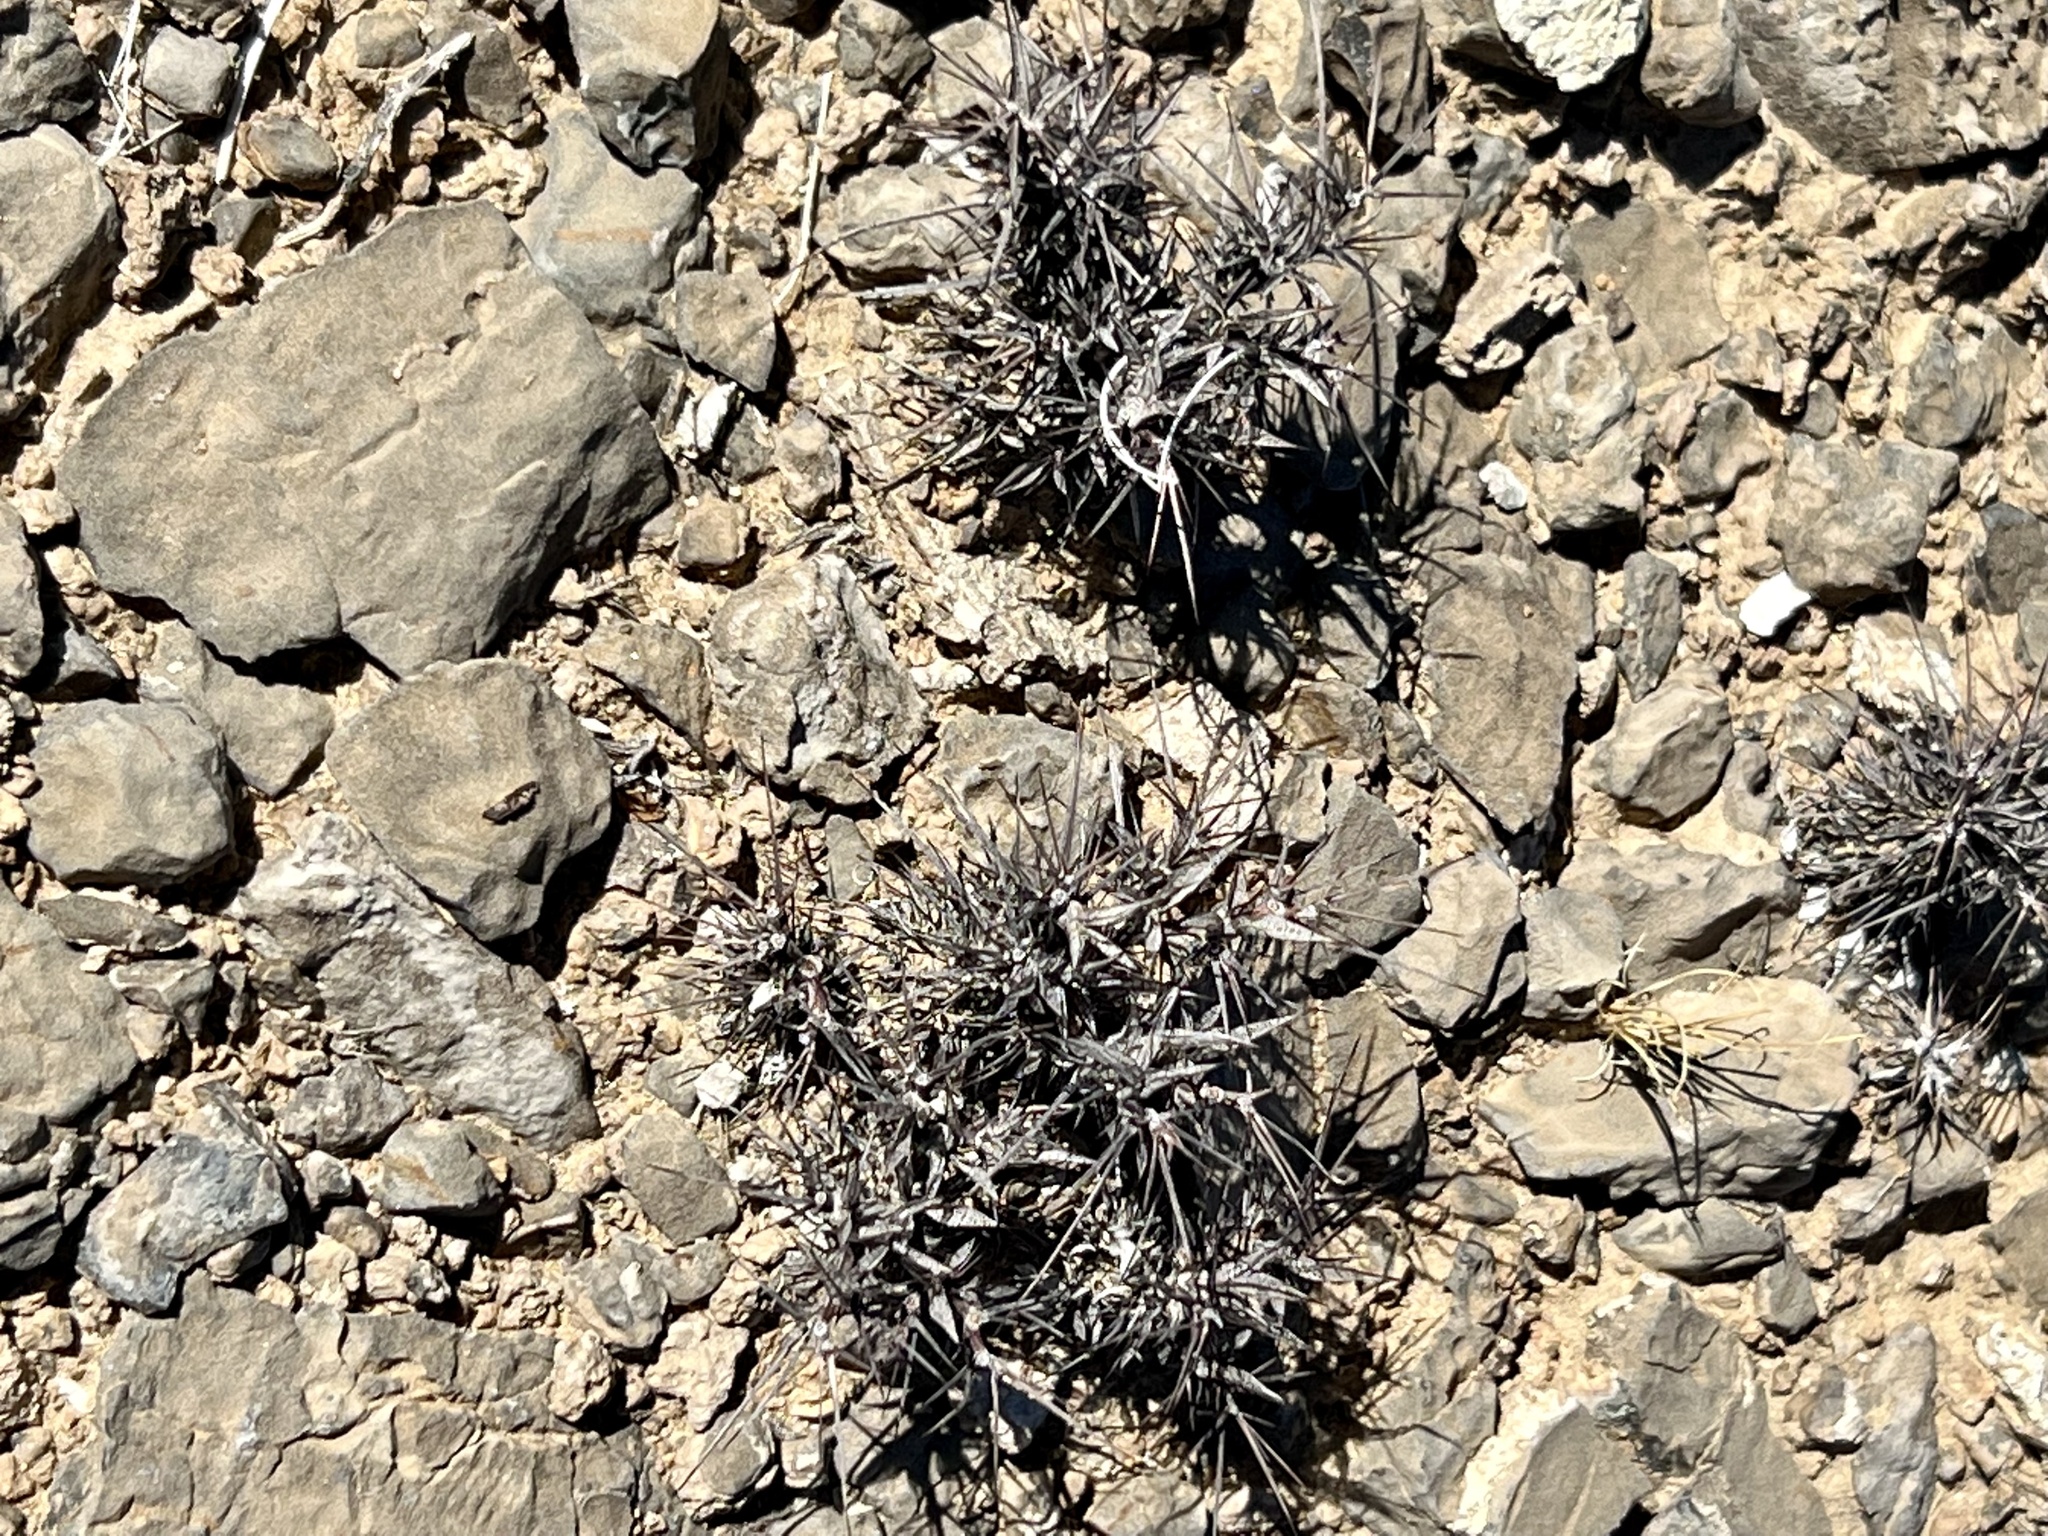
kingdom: Plantae
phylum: Tracheophyta
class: Magnoliopsida
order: Caryophyllales
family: Polygonaceae
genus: Chorizanthe
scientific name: Chorizanthe rigida
